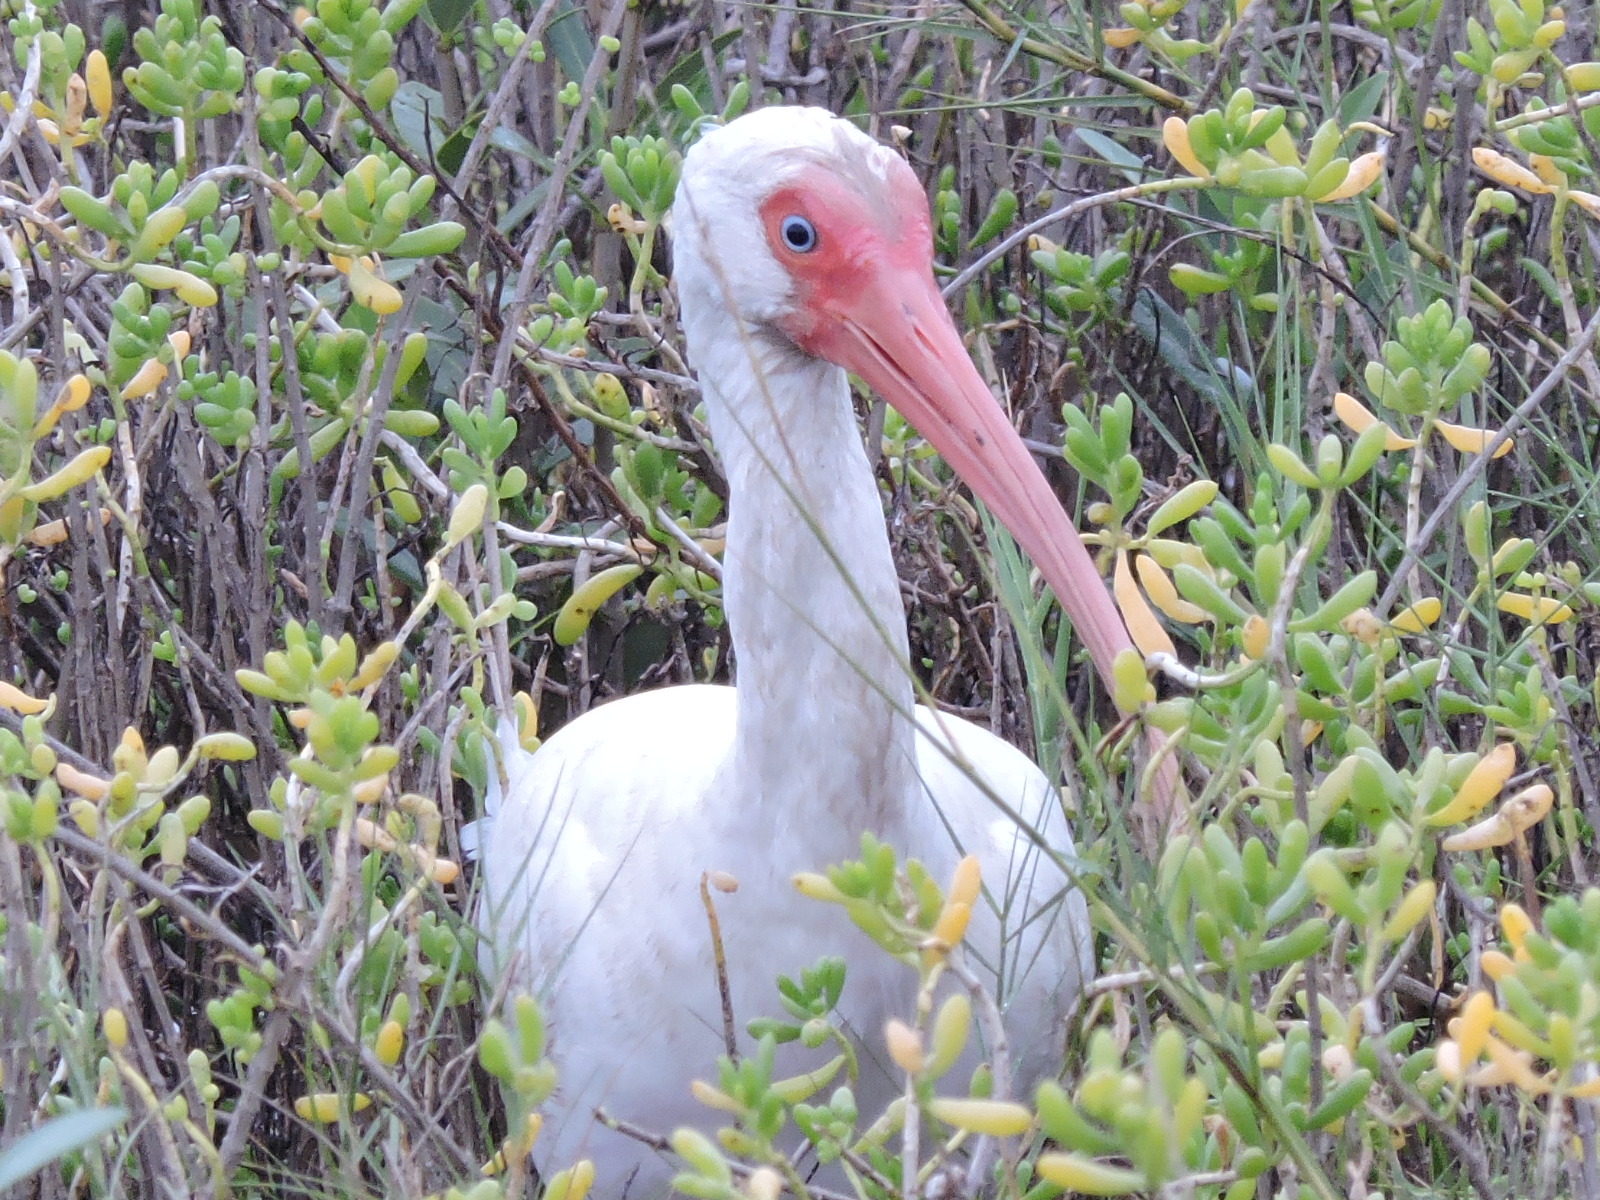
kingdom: Animalia
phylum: Chordata
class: Aves
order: Pelecaniformes
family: Threskiornithidae
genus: Eudocimus
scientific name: Eudocimus albus
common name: White ibis
